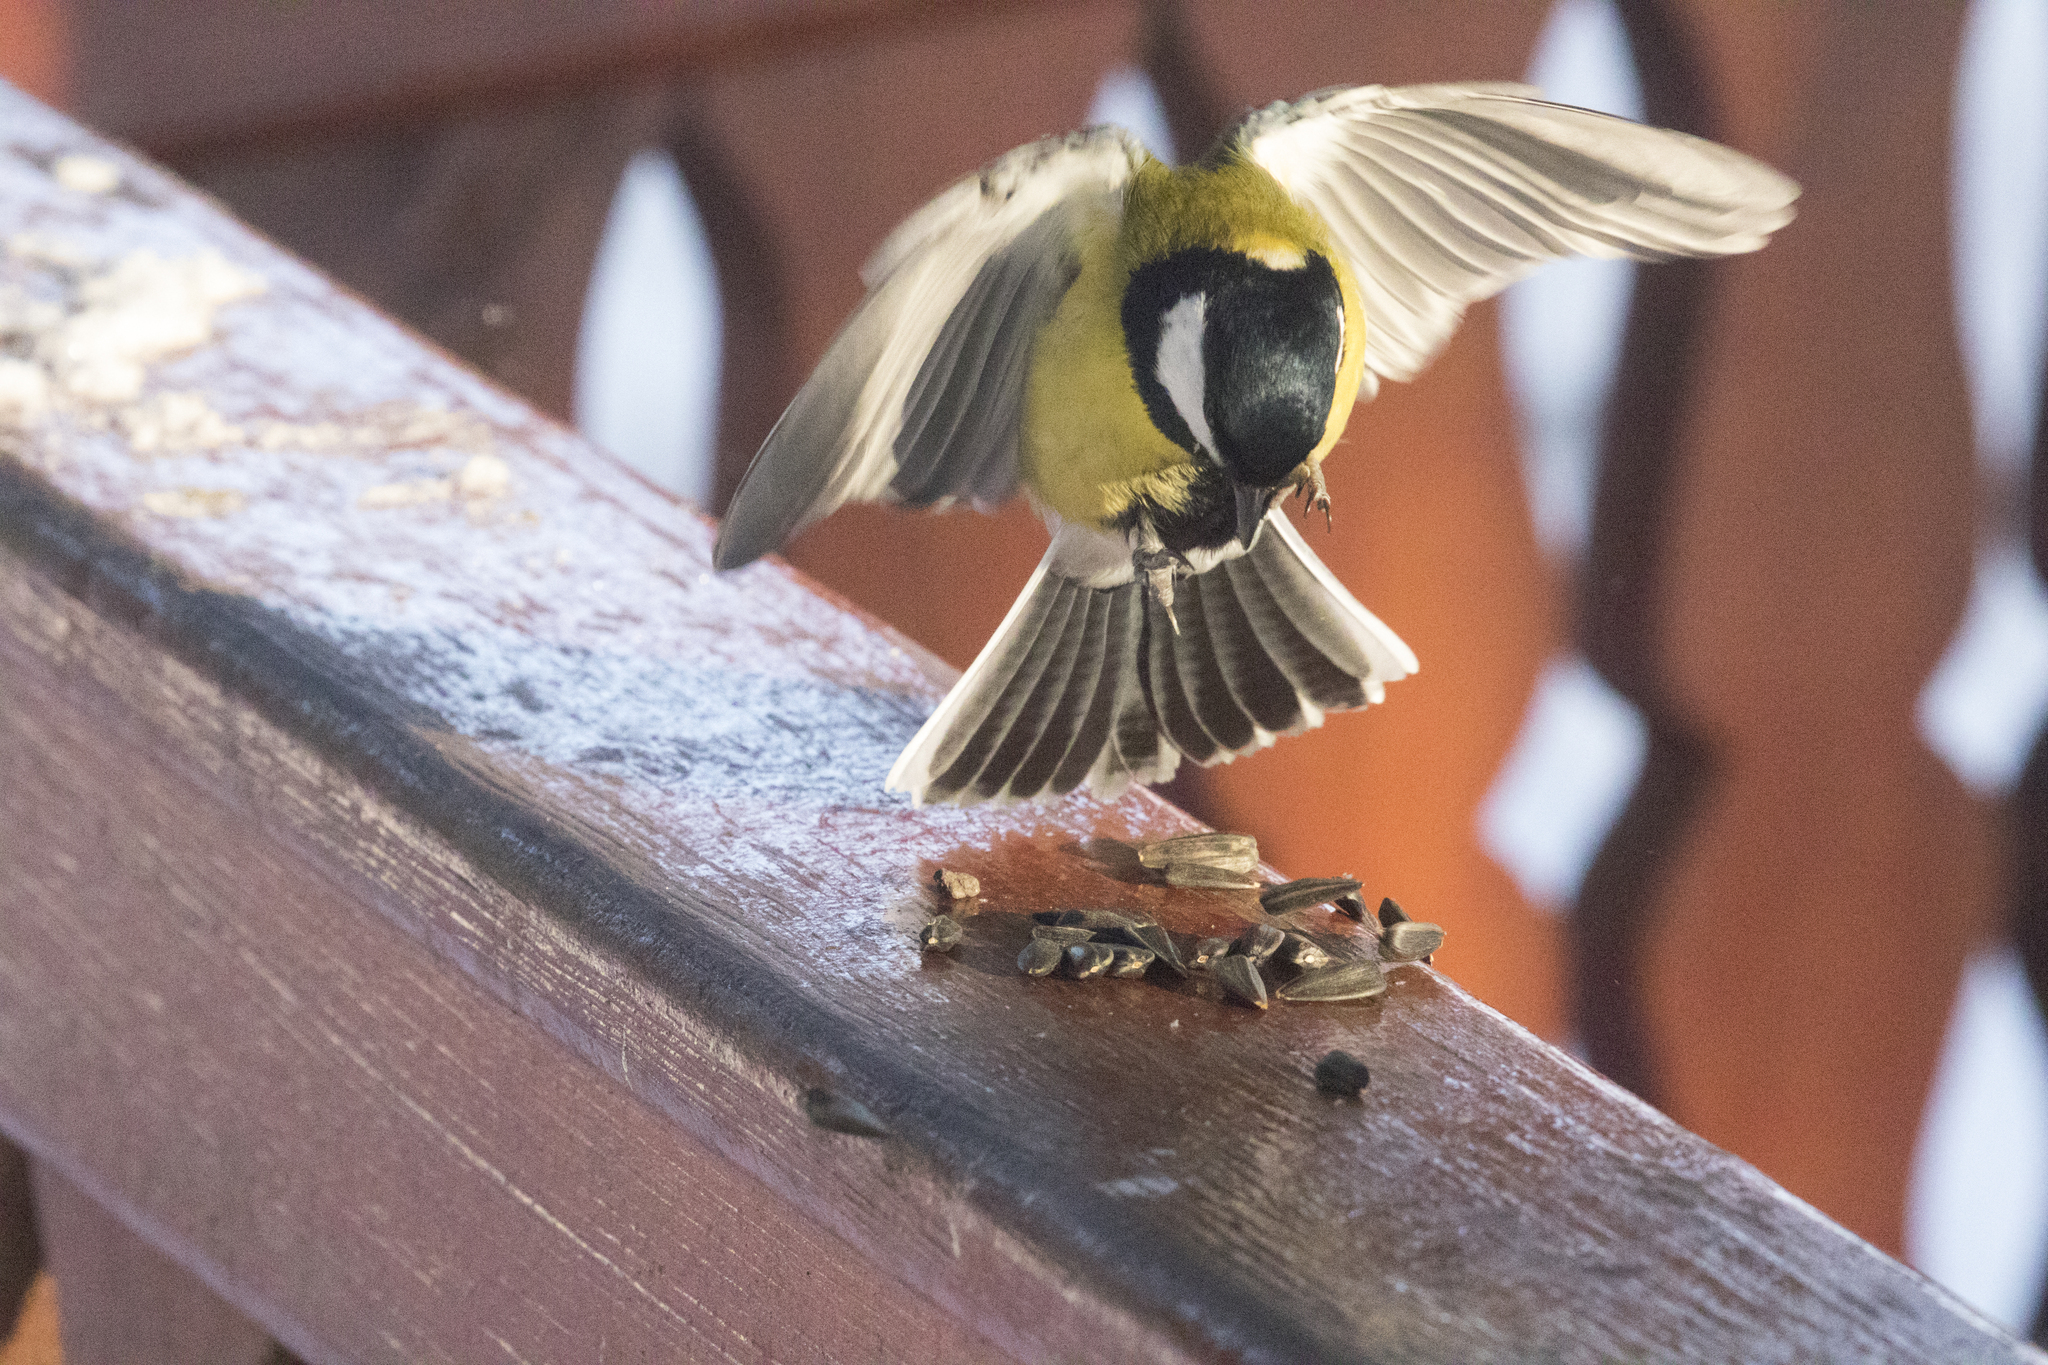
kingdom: Animalia
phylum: Chordata
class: Aves
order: Passeriformes
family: Paridae
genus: Parus
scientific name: Parus major
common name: Great tit
